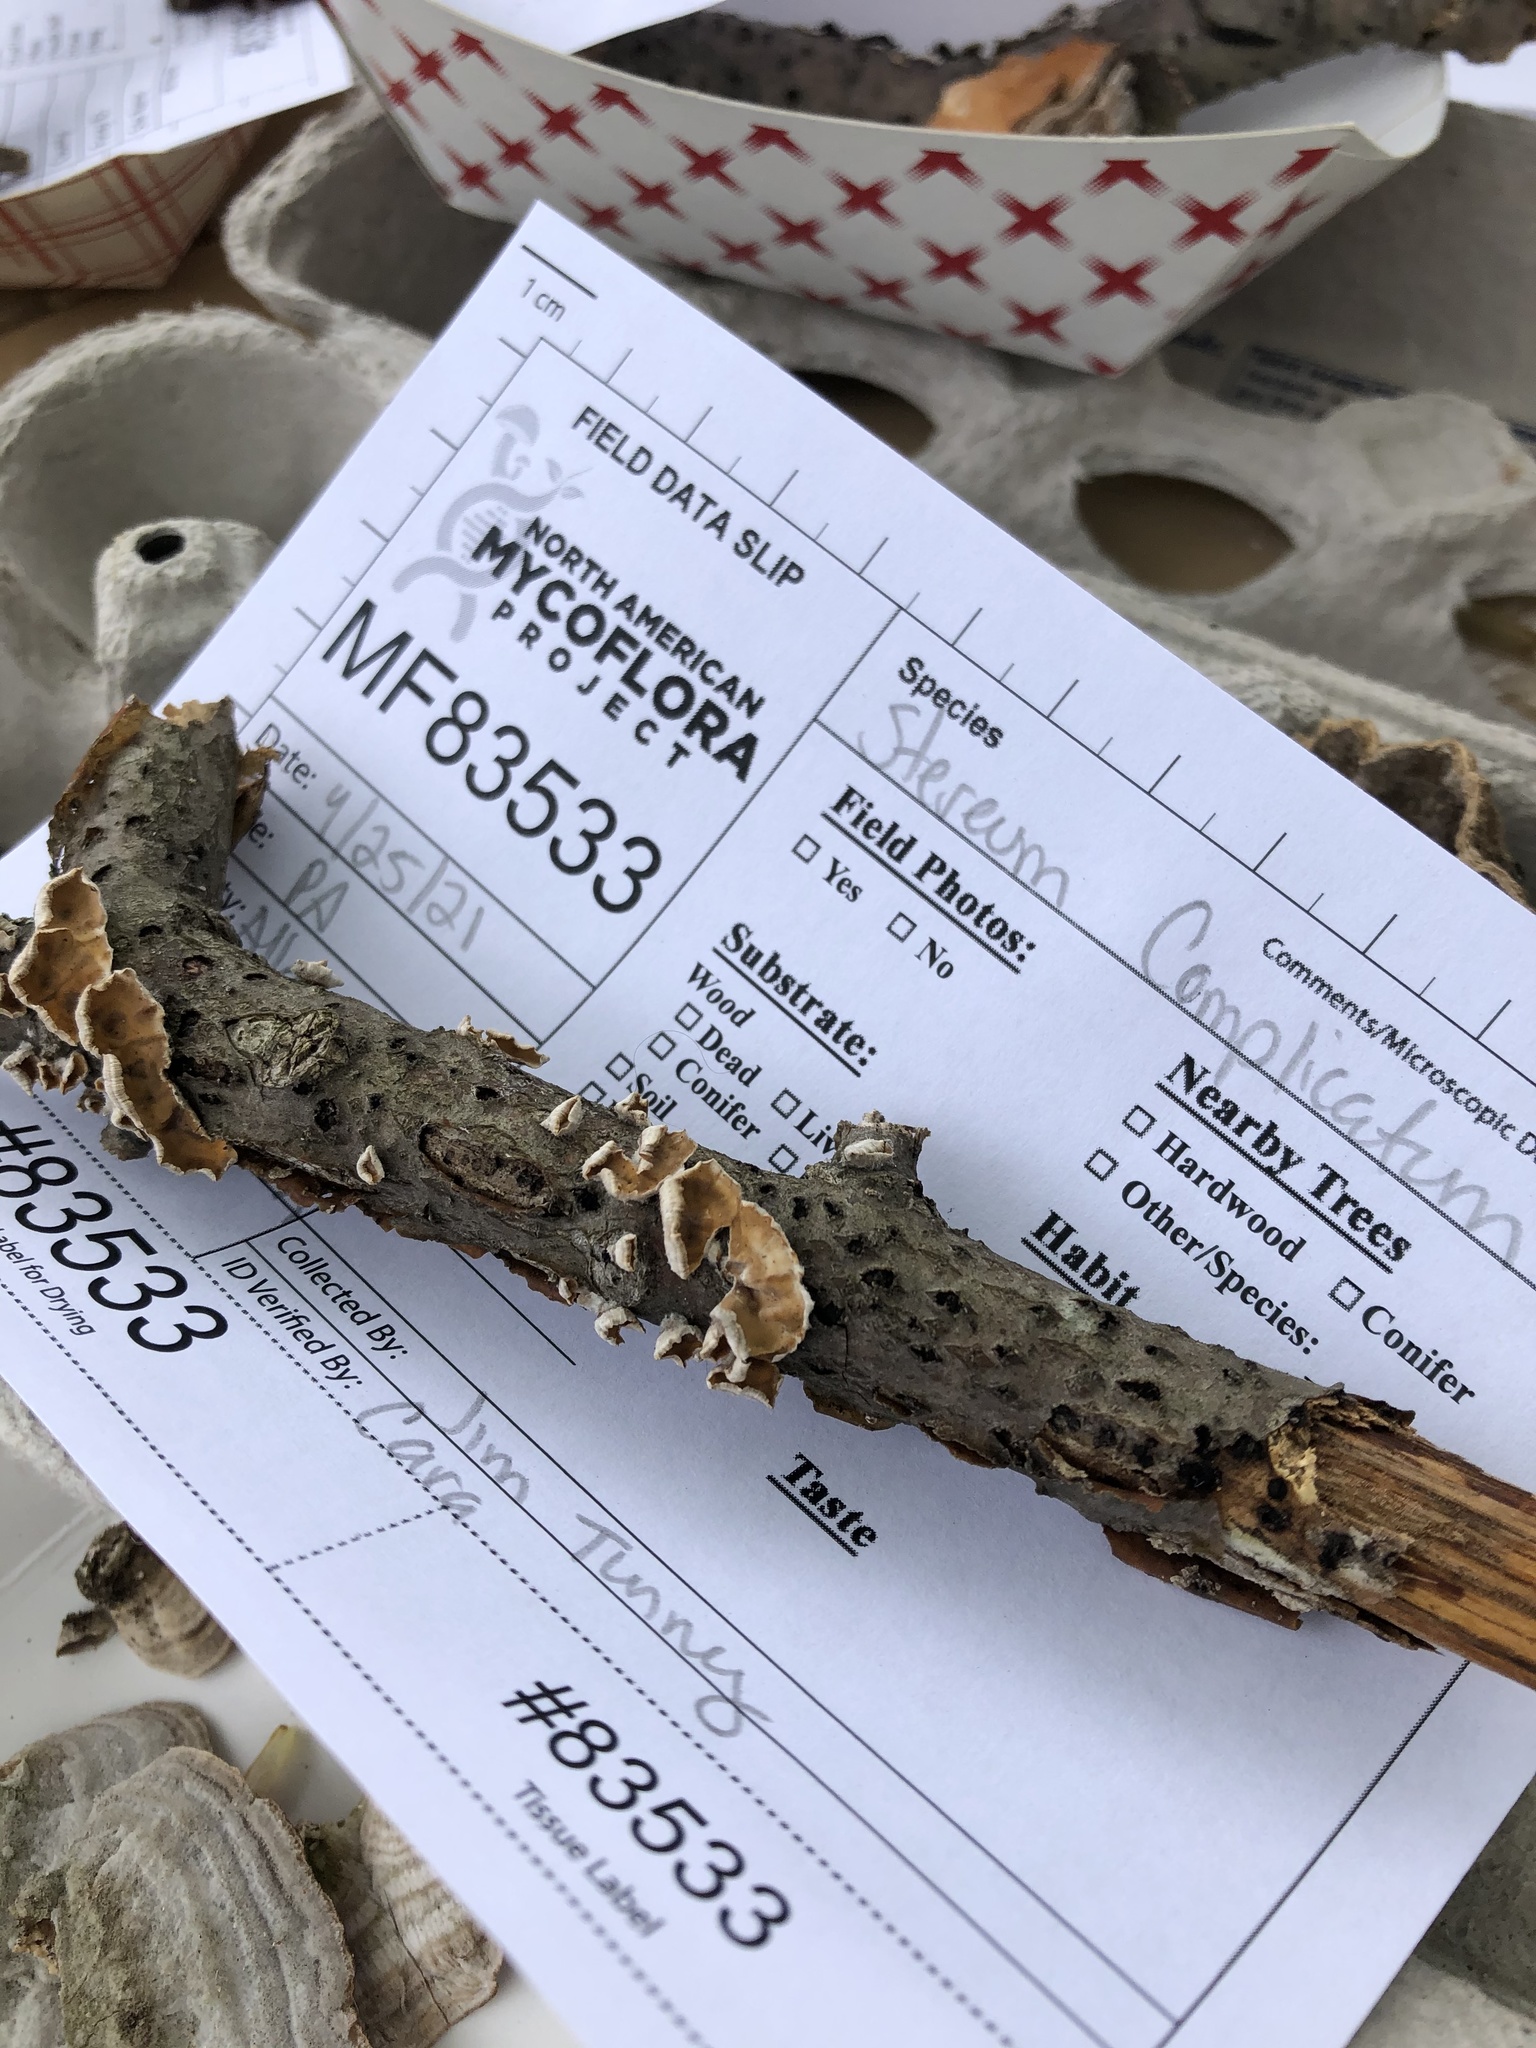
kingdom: Fungi
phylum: Basidiomycota
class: Agaricomycetes
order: Russulales
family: Stereaceae
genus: Stereum
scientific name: Stereum complicatum
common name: Crowded parchment
